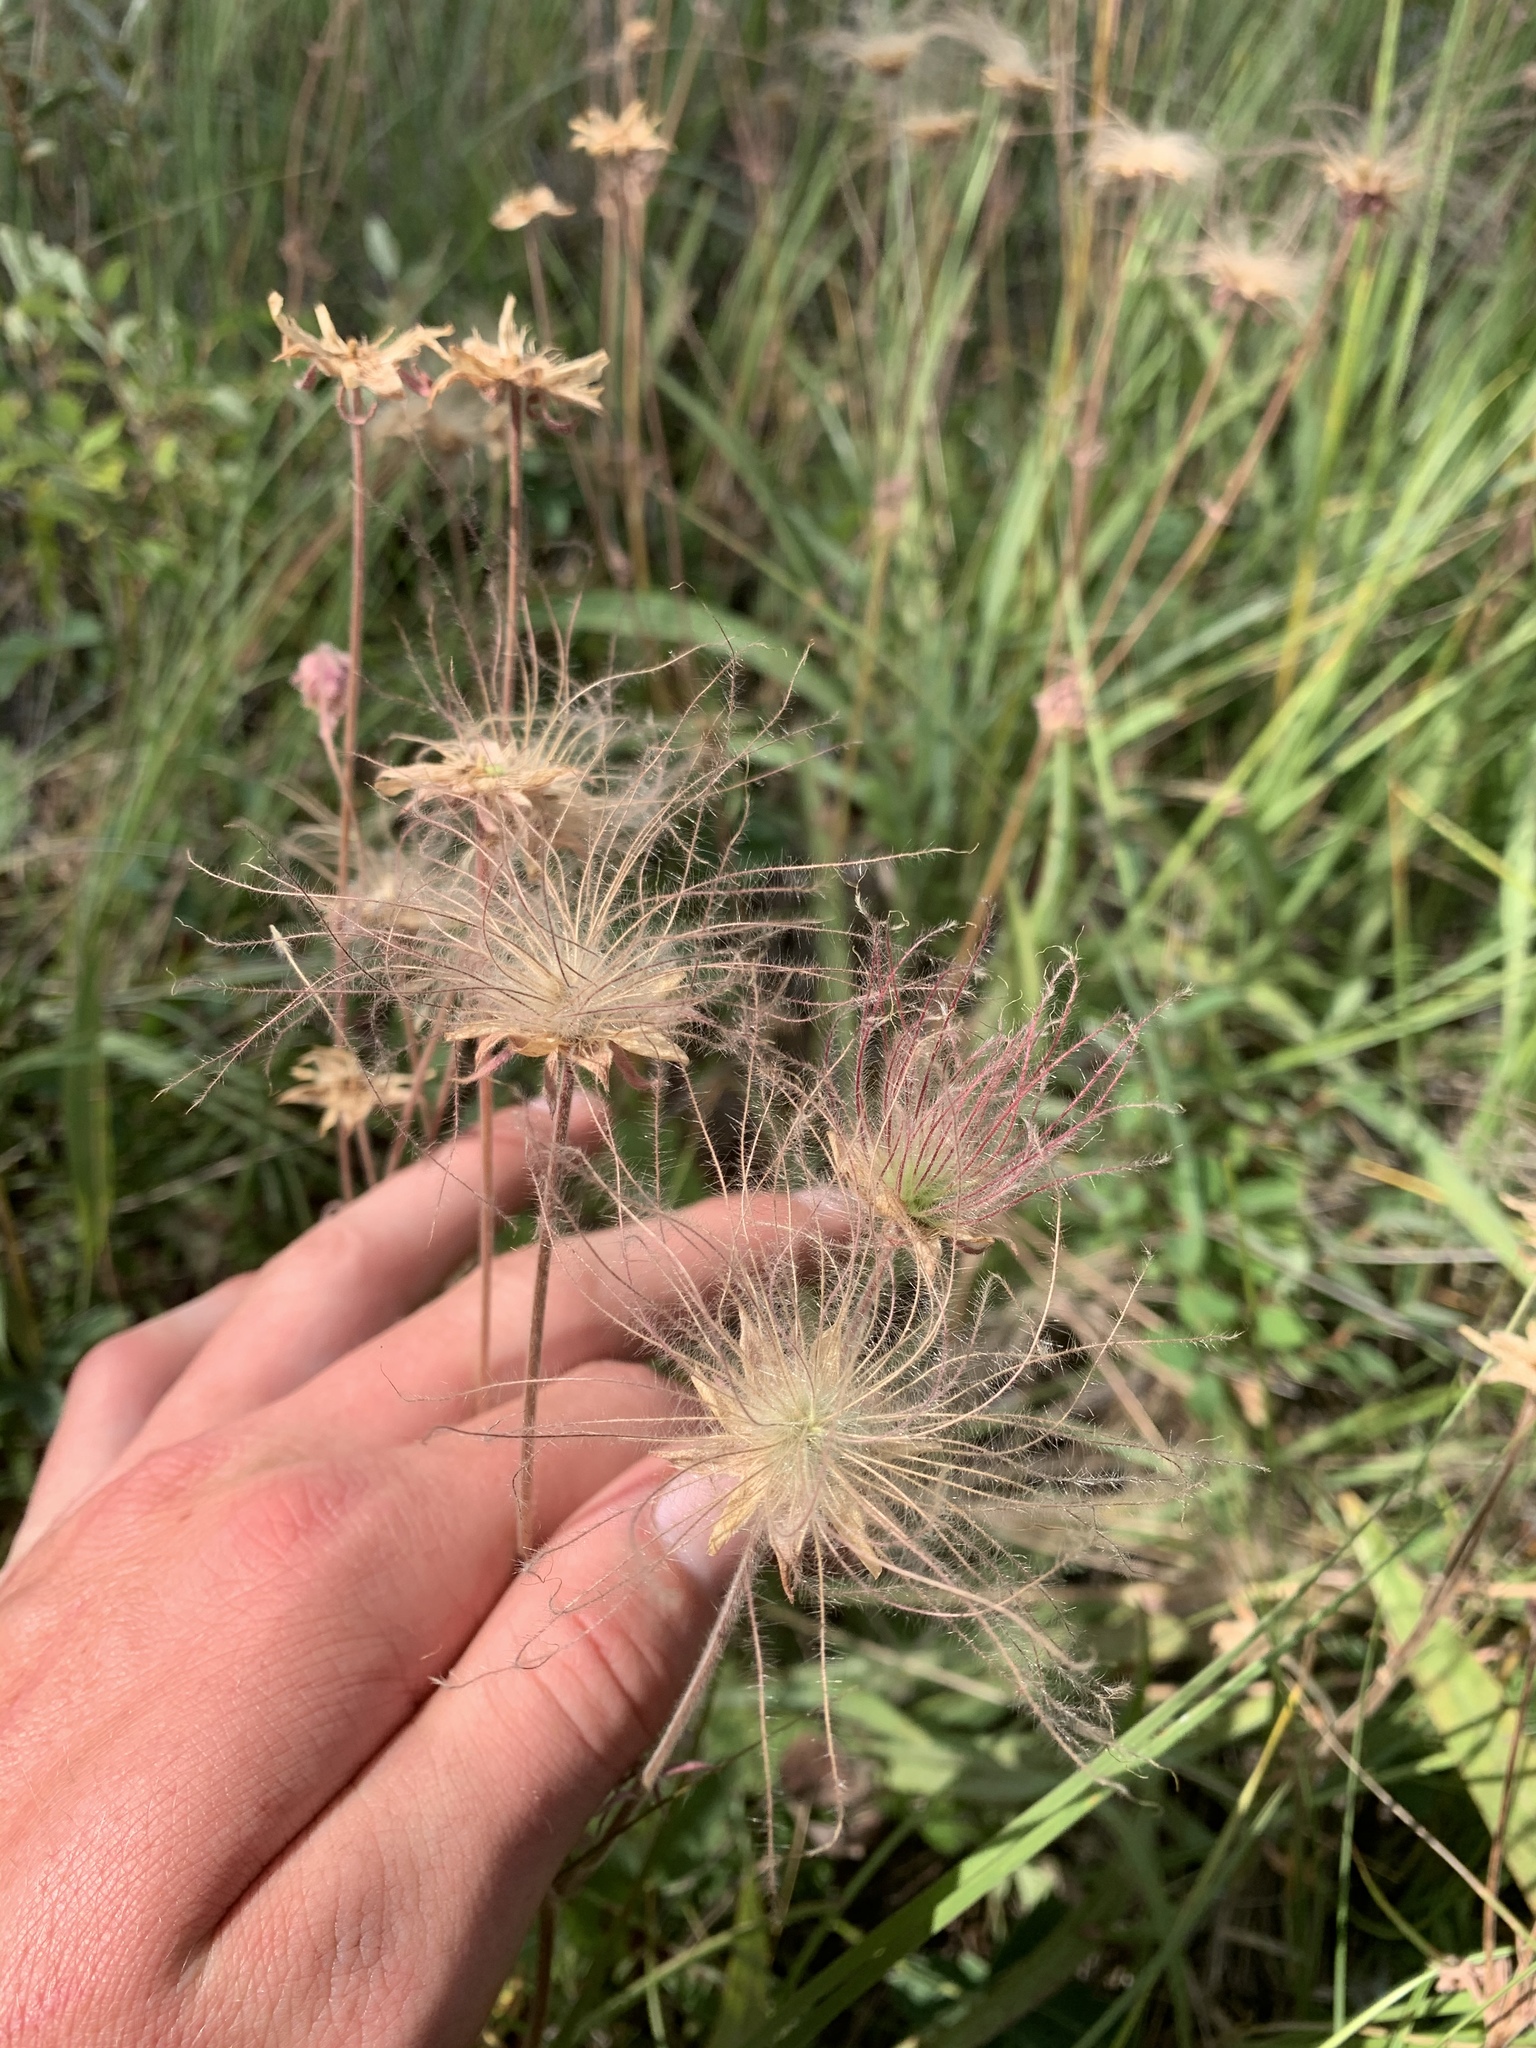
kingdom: Plantae
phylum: Tracheophyta
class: Magnoliopsida
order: Rosales
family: Rosaceae
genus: Geum
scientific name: Geum triflorum
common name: Old man's whiskers
